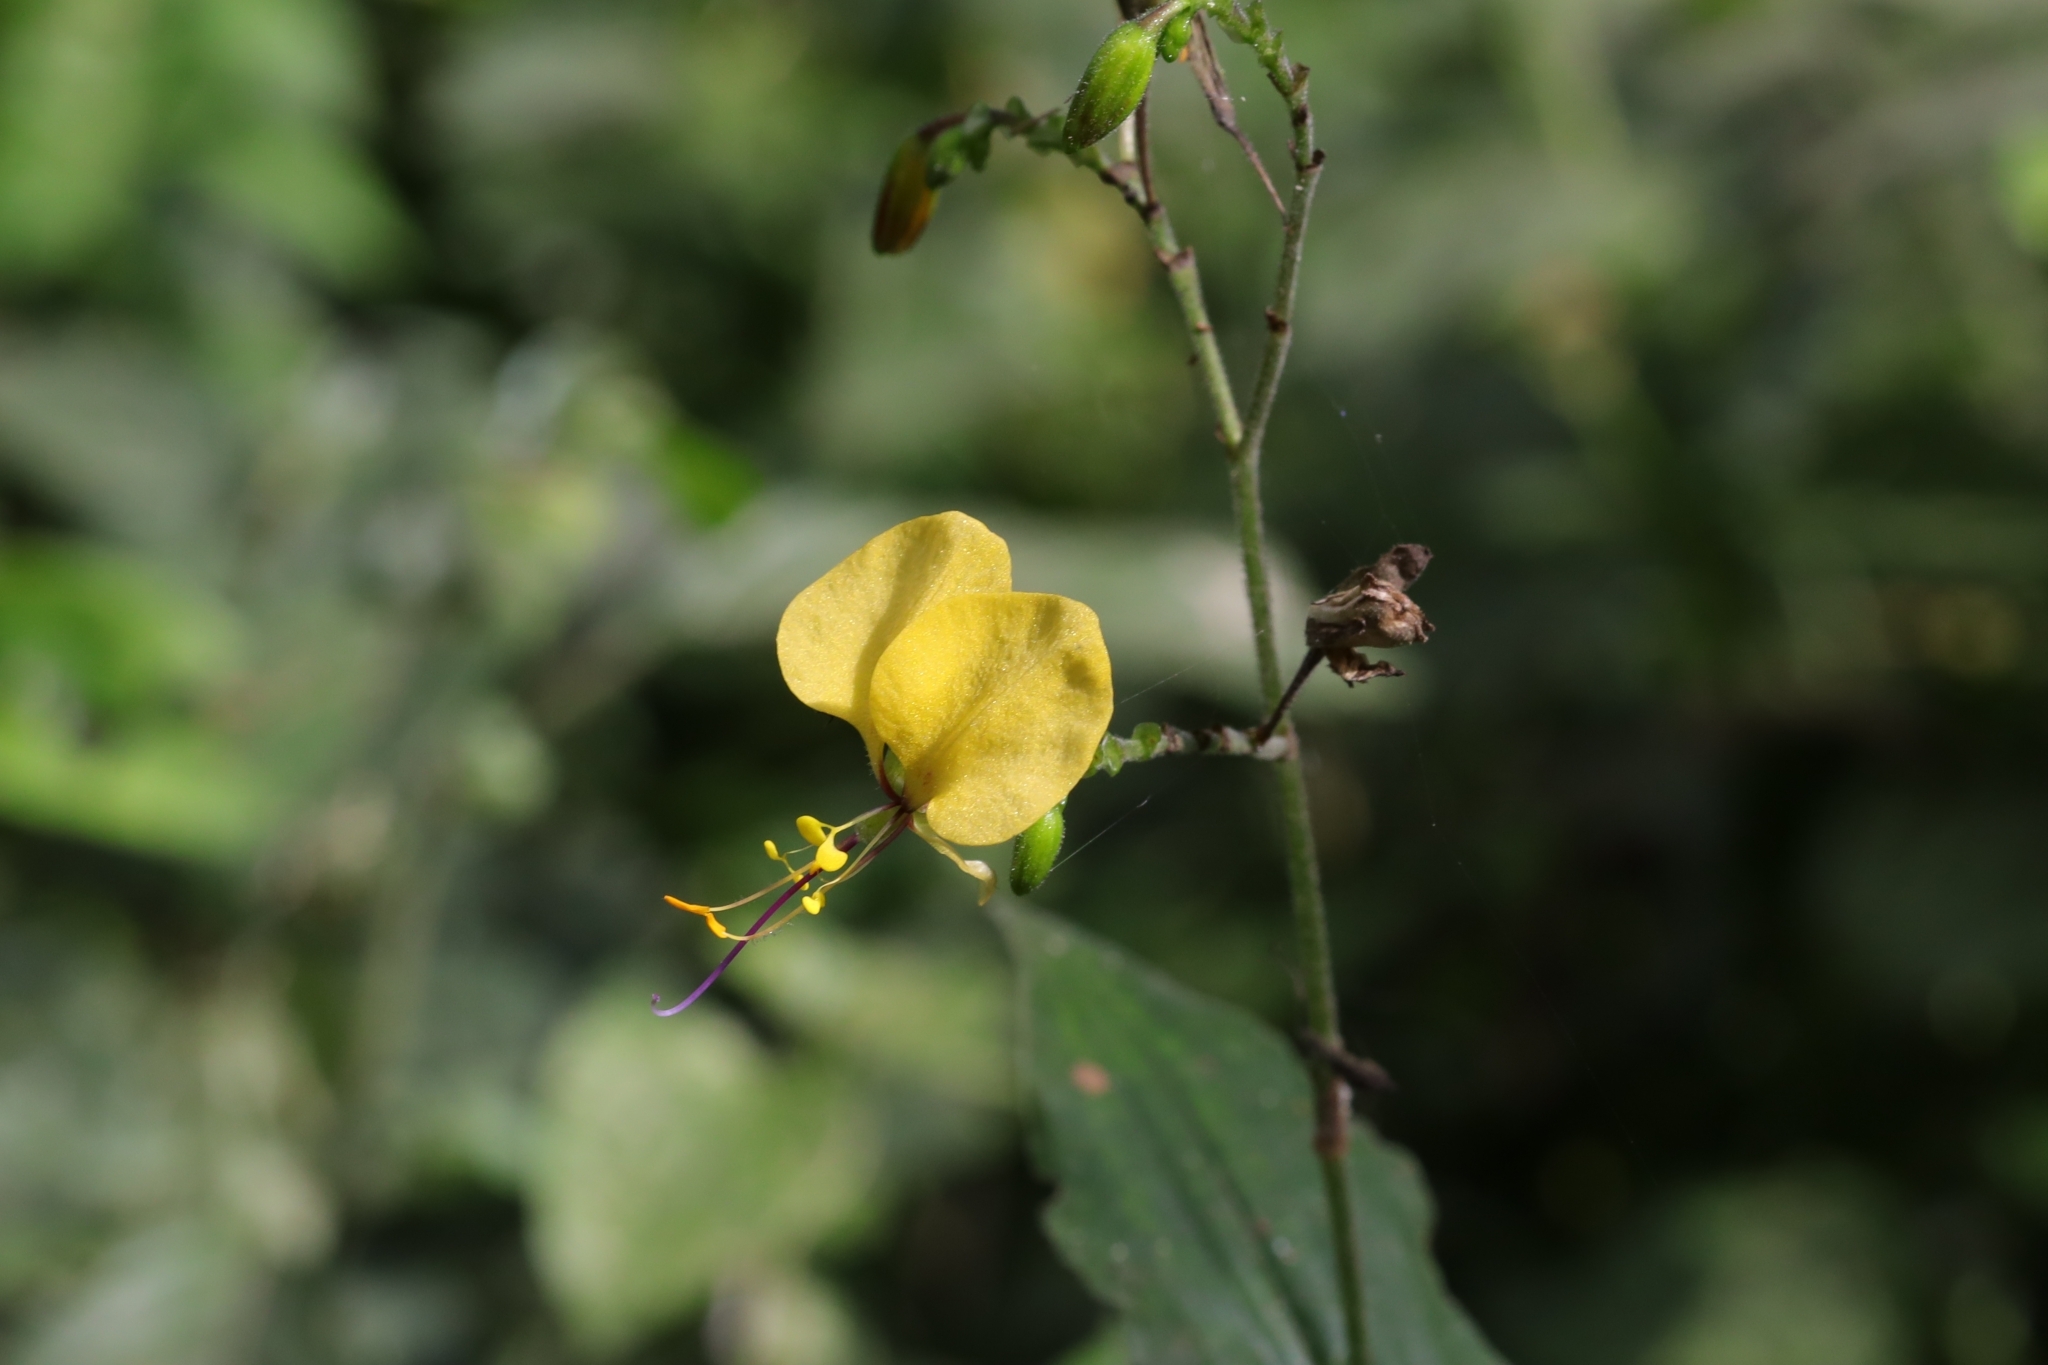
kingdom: Plantae
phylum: Tracheophyta
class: Liliopsida
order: Commelinales
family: Commelinaceae
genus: Aneilema
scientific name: Aneilema aequinoctiale
